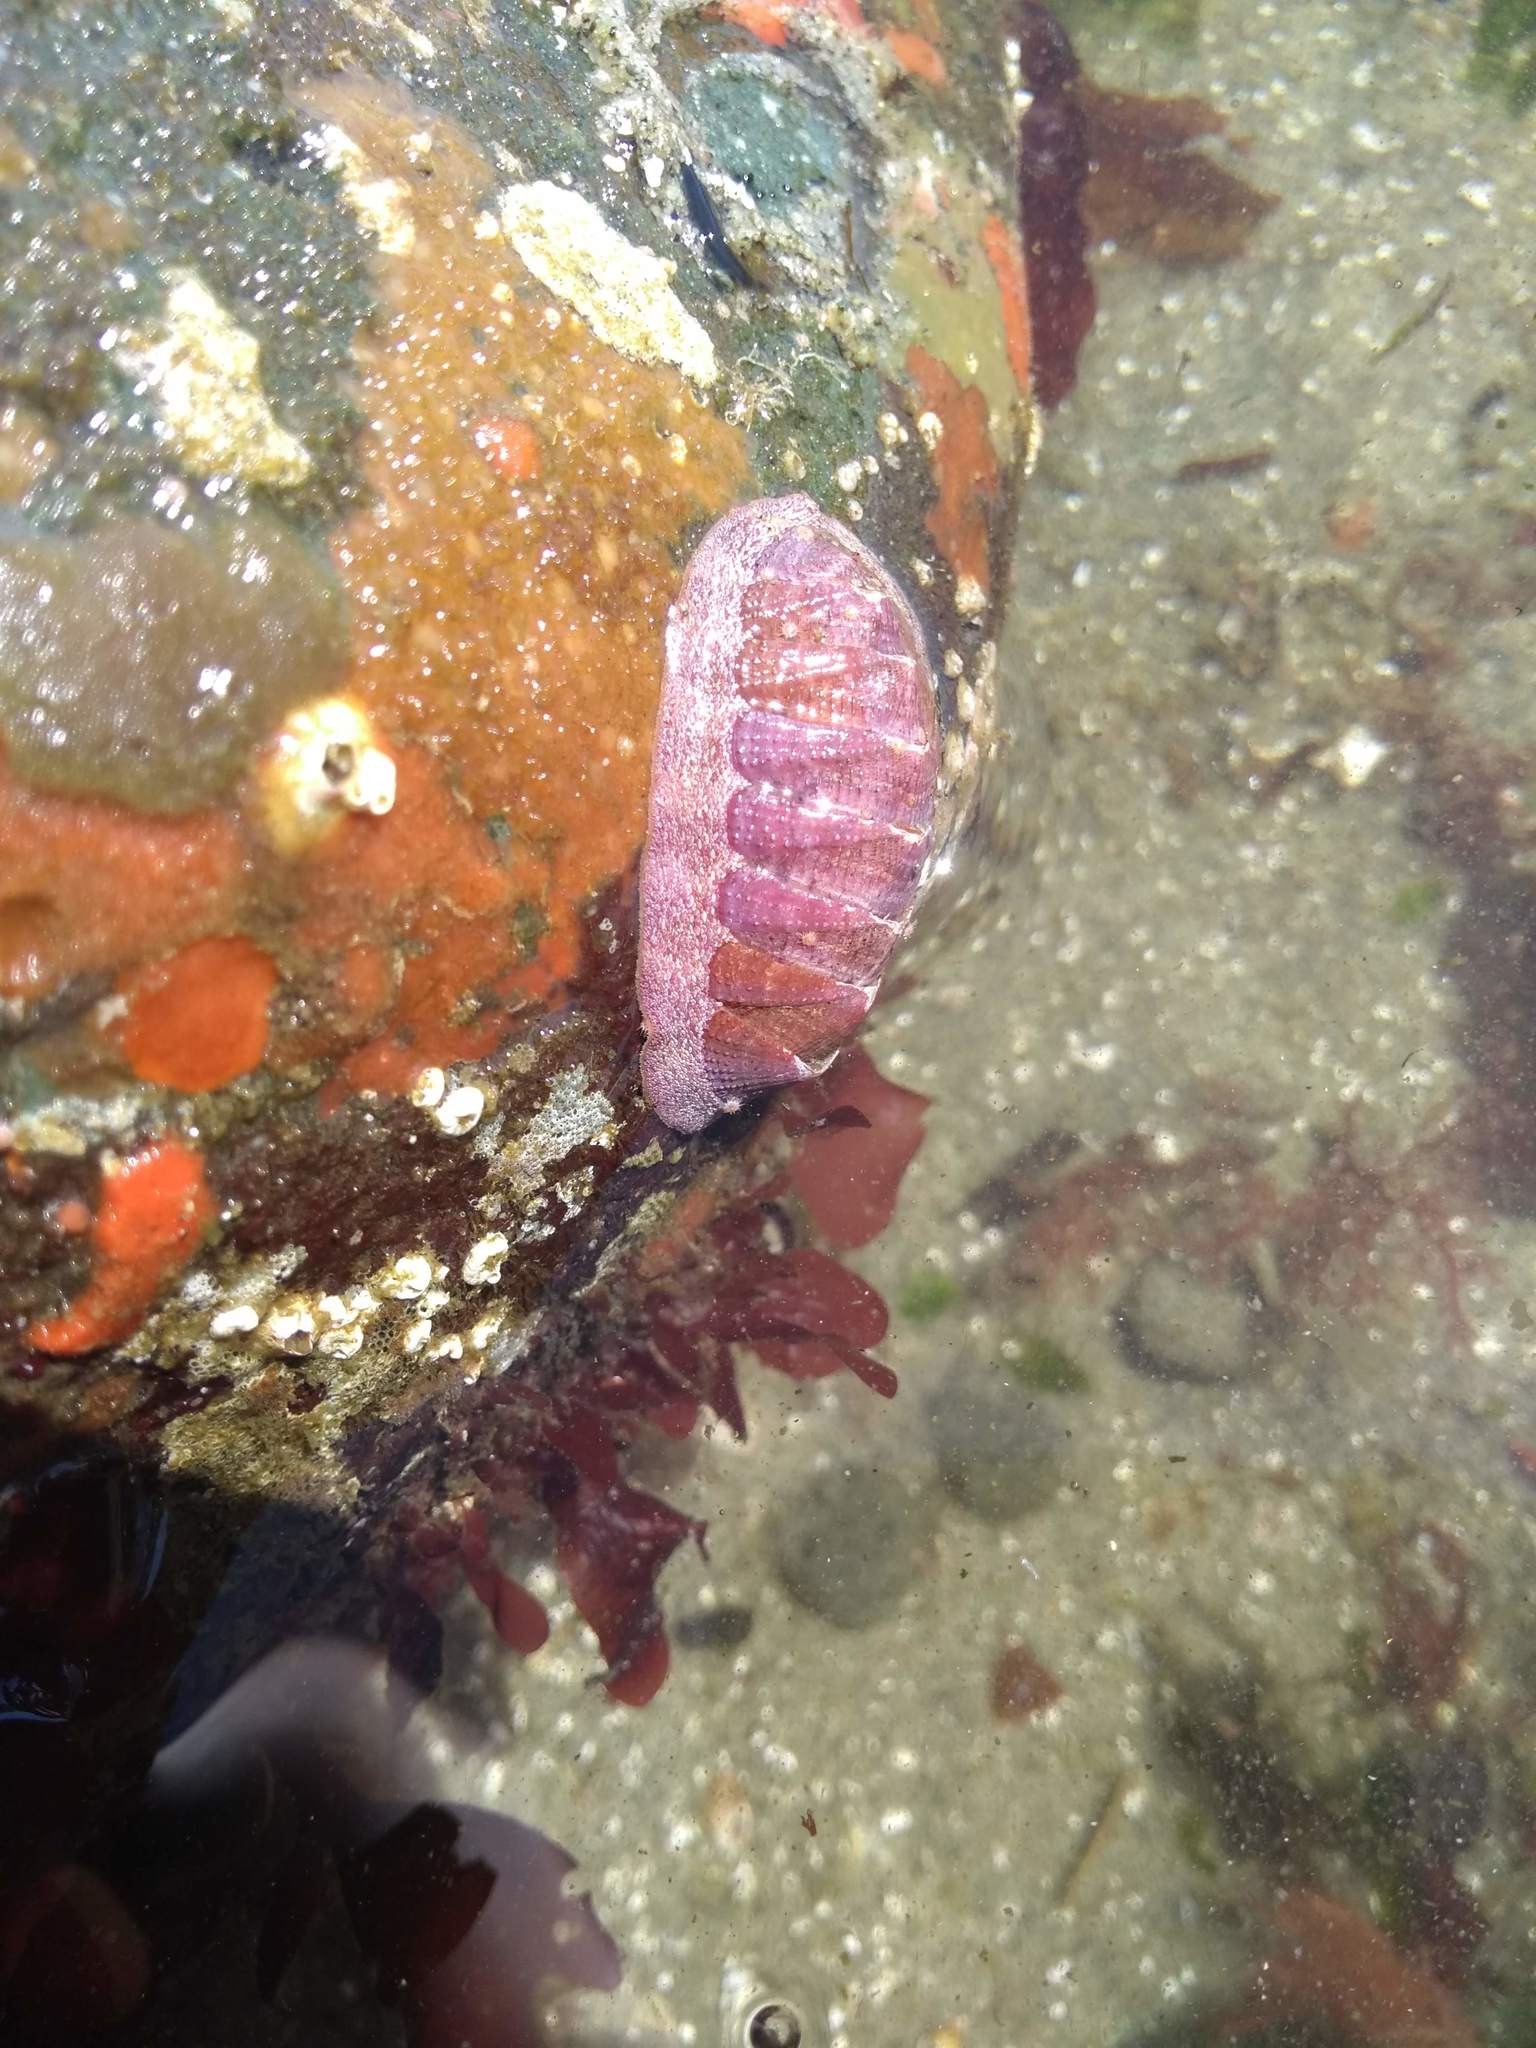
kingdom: Animalia
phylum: Mollusca
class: Polyplacophora
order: Chitonida
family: Ischnochitonidae
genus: Lepidozona
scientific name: Lepidozona mertensii
